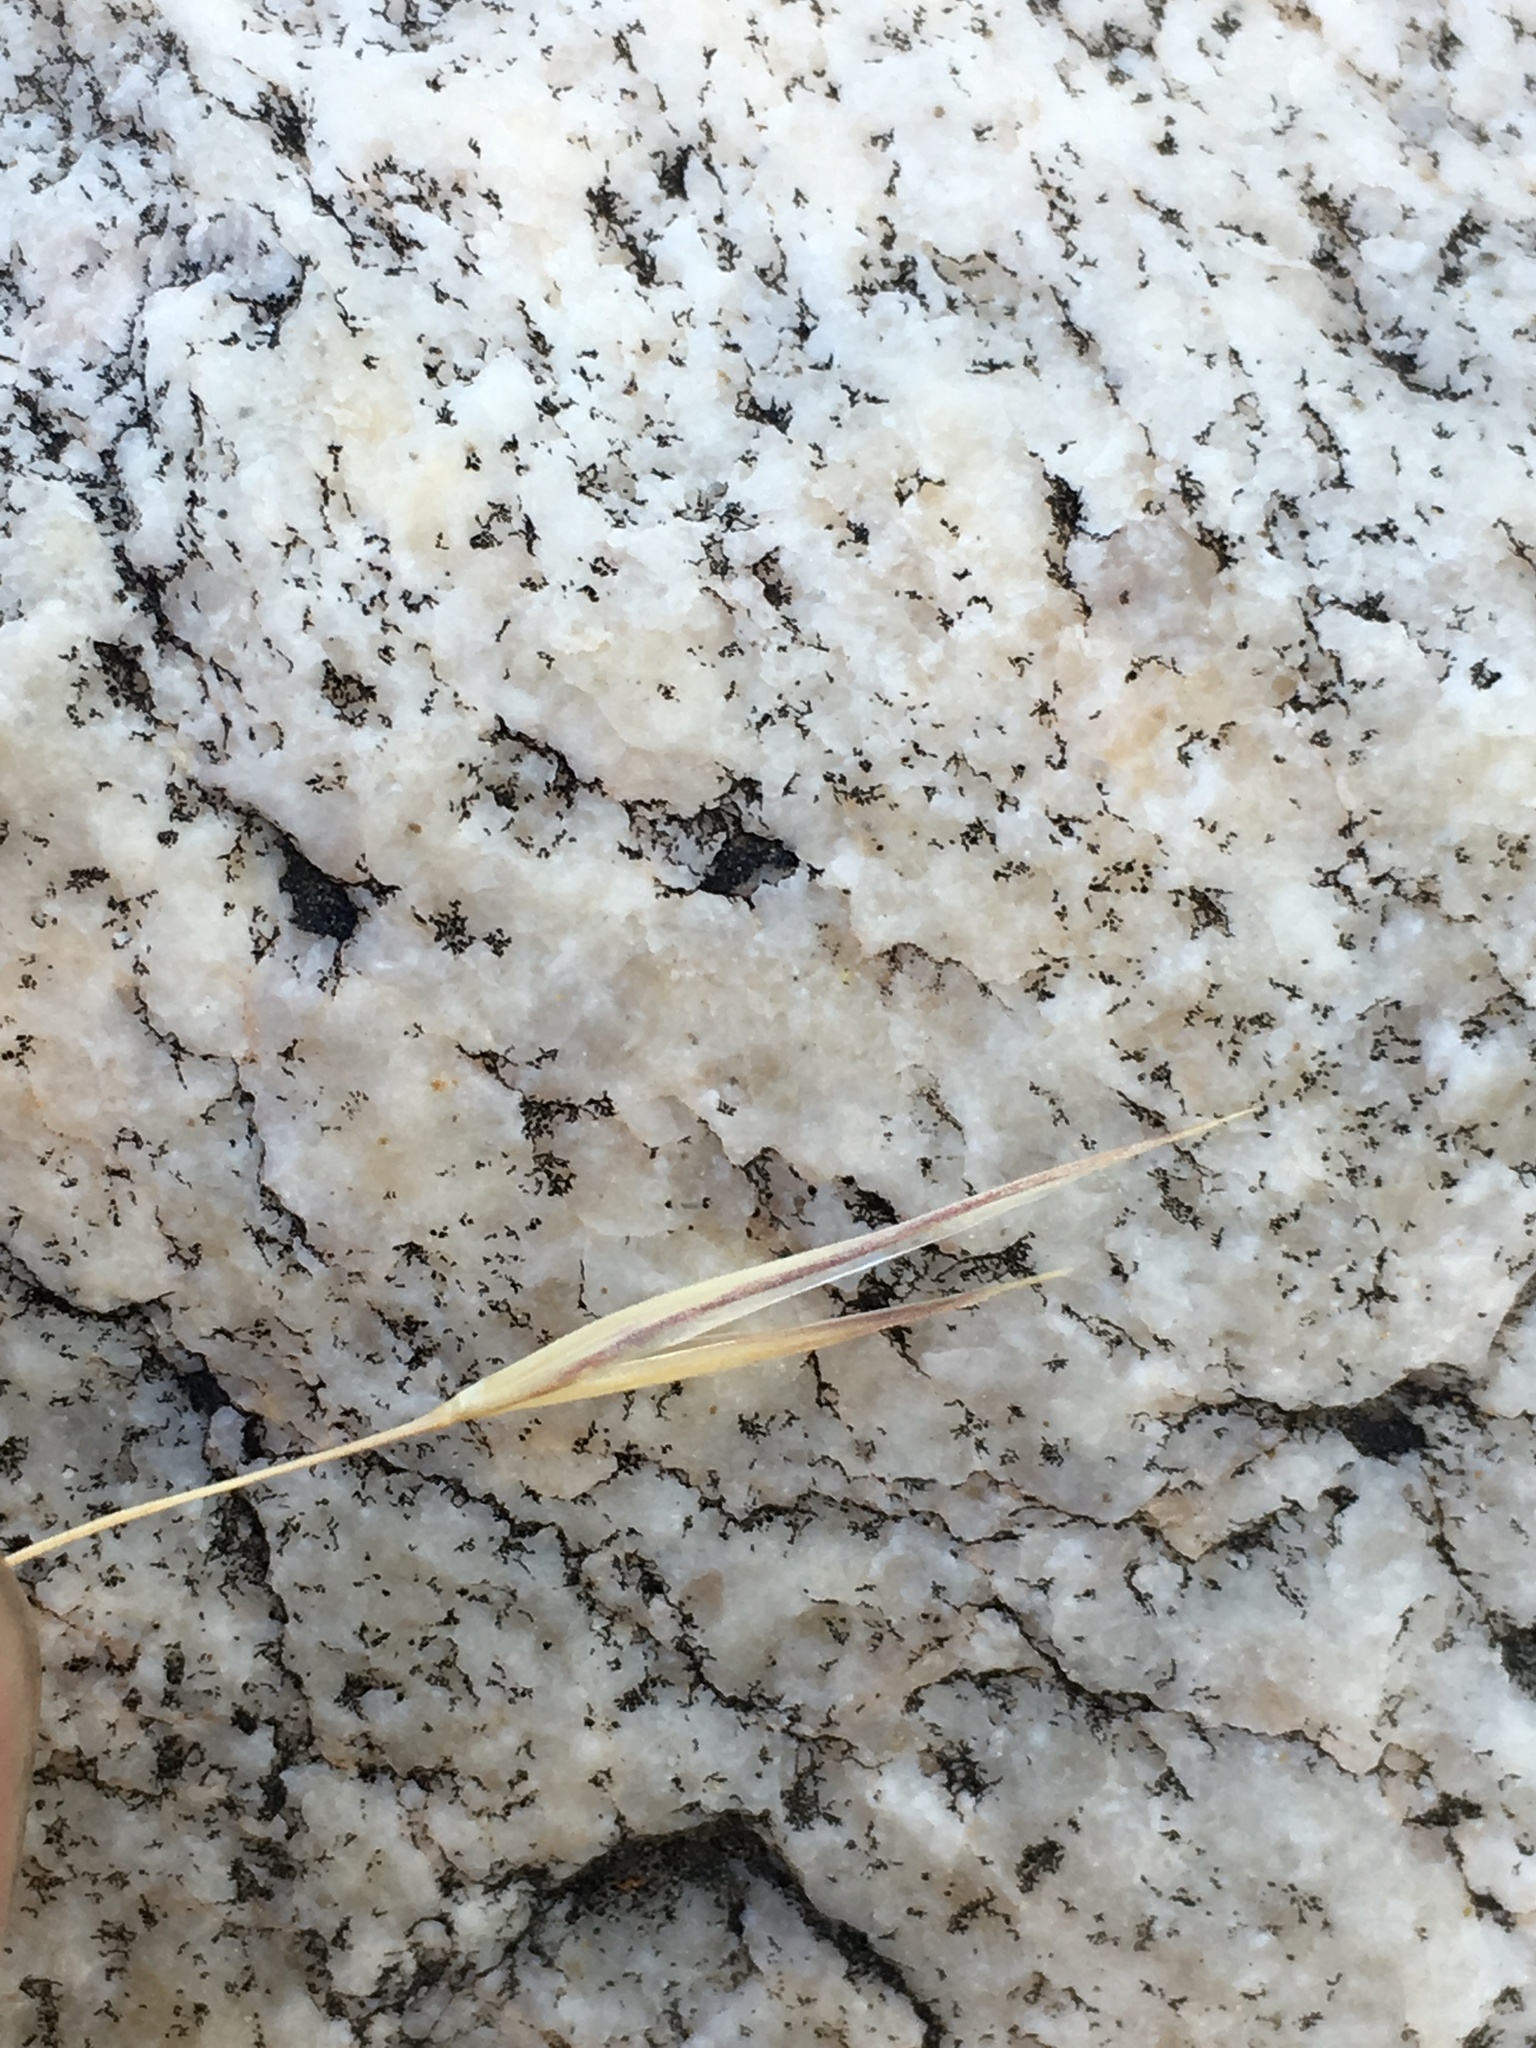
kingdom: Plantae
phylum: Tracheophyta
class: Liliopsida
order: Poales
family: Poaceae
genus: Eriocoma
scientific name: Eriocoma parishii
